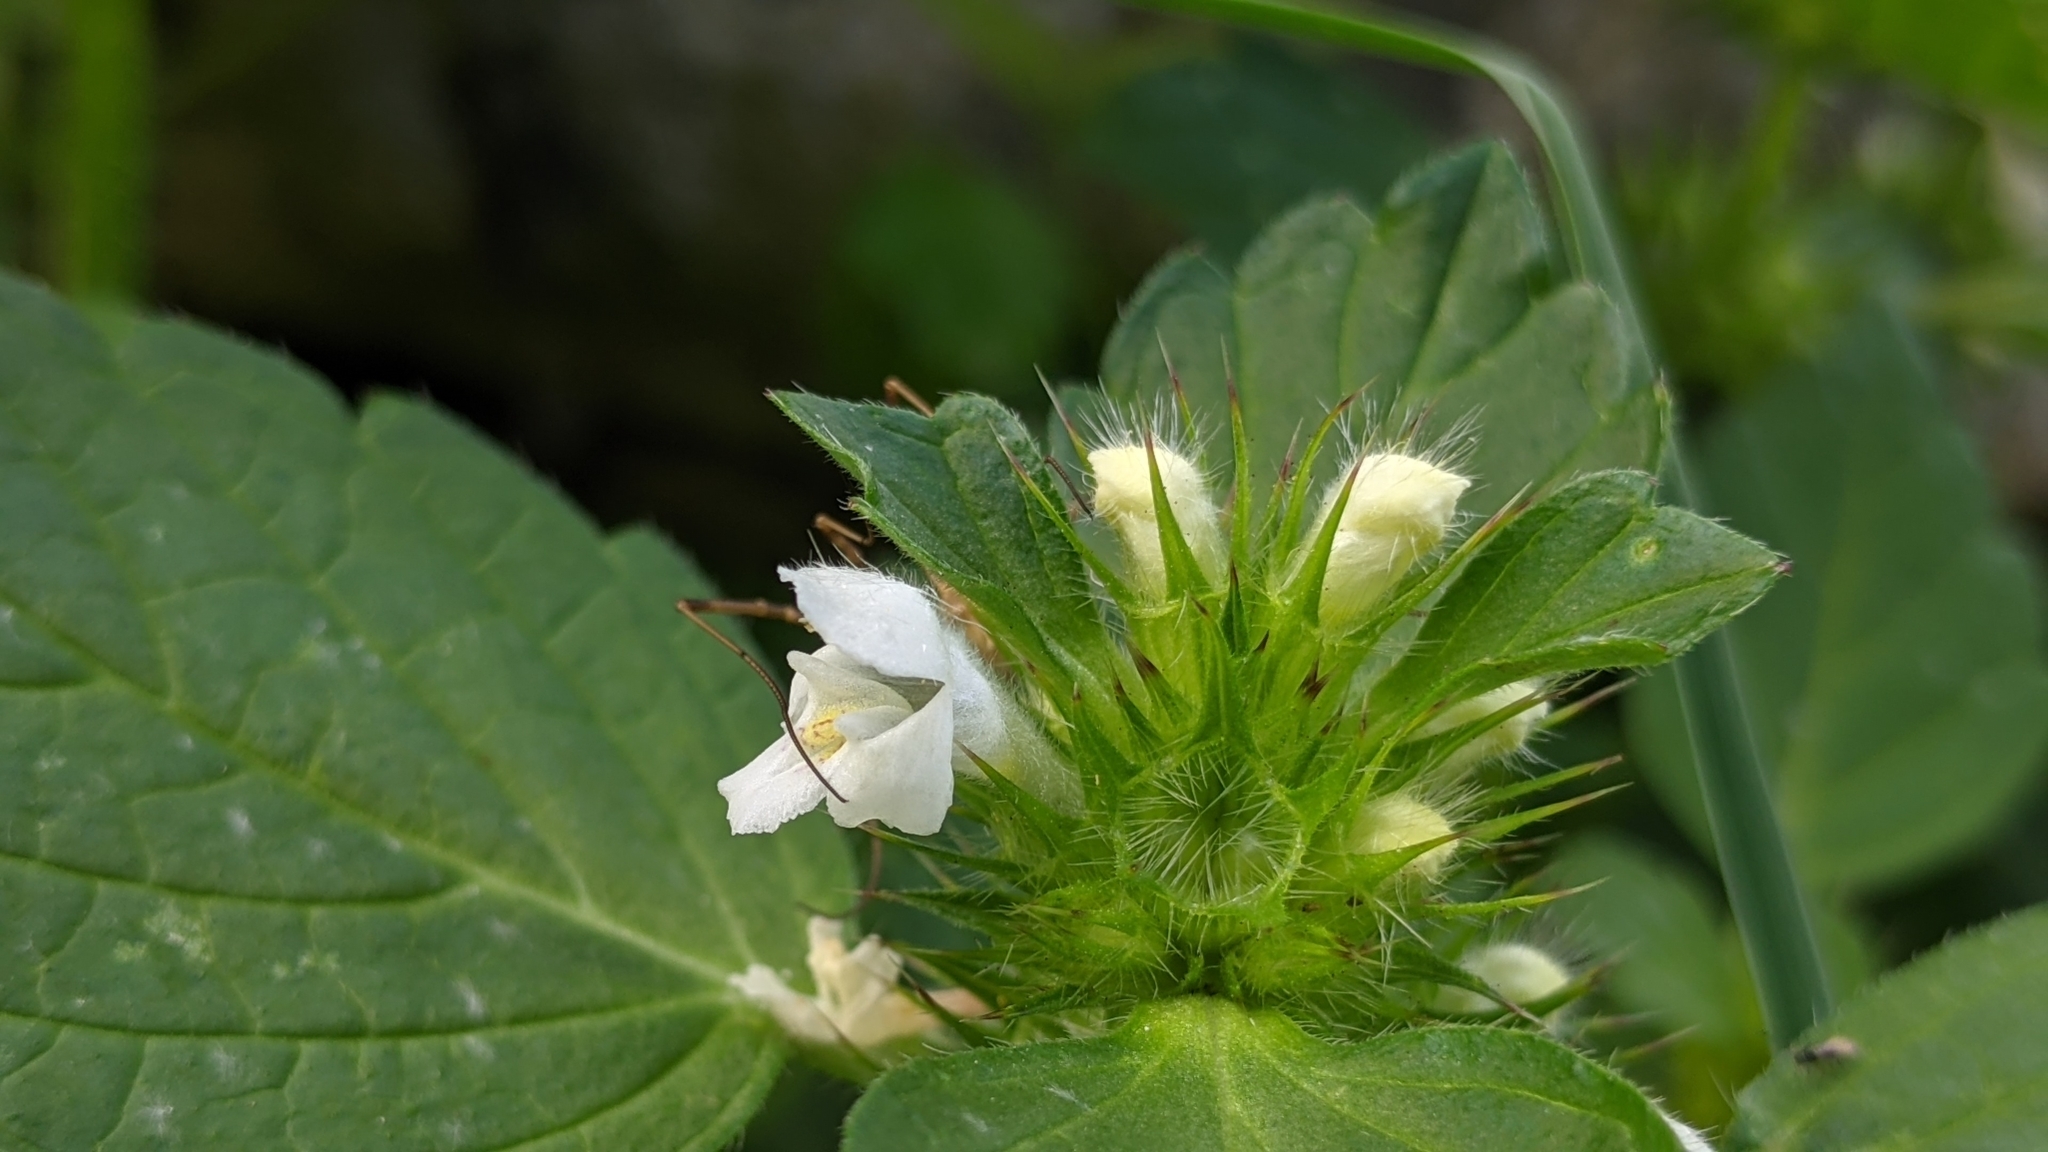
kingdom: Plantae
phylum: Tracheophyta
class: Magnoliopsida
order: Lamiales
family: Lamiaceae
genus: Galeopsis
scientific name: Galeopsis tetrahit
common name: Common hemp-nettle
